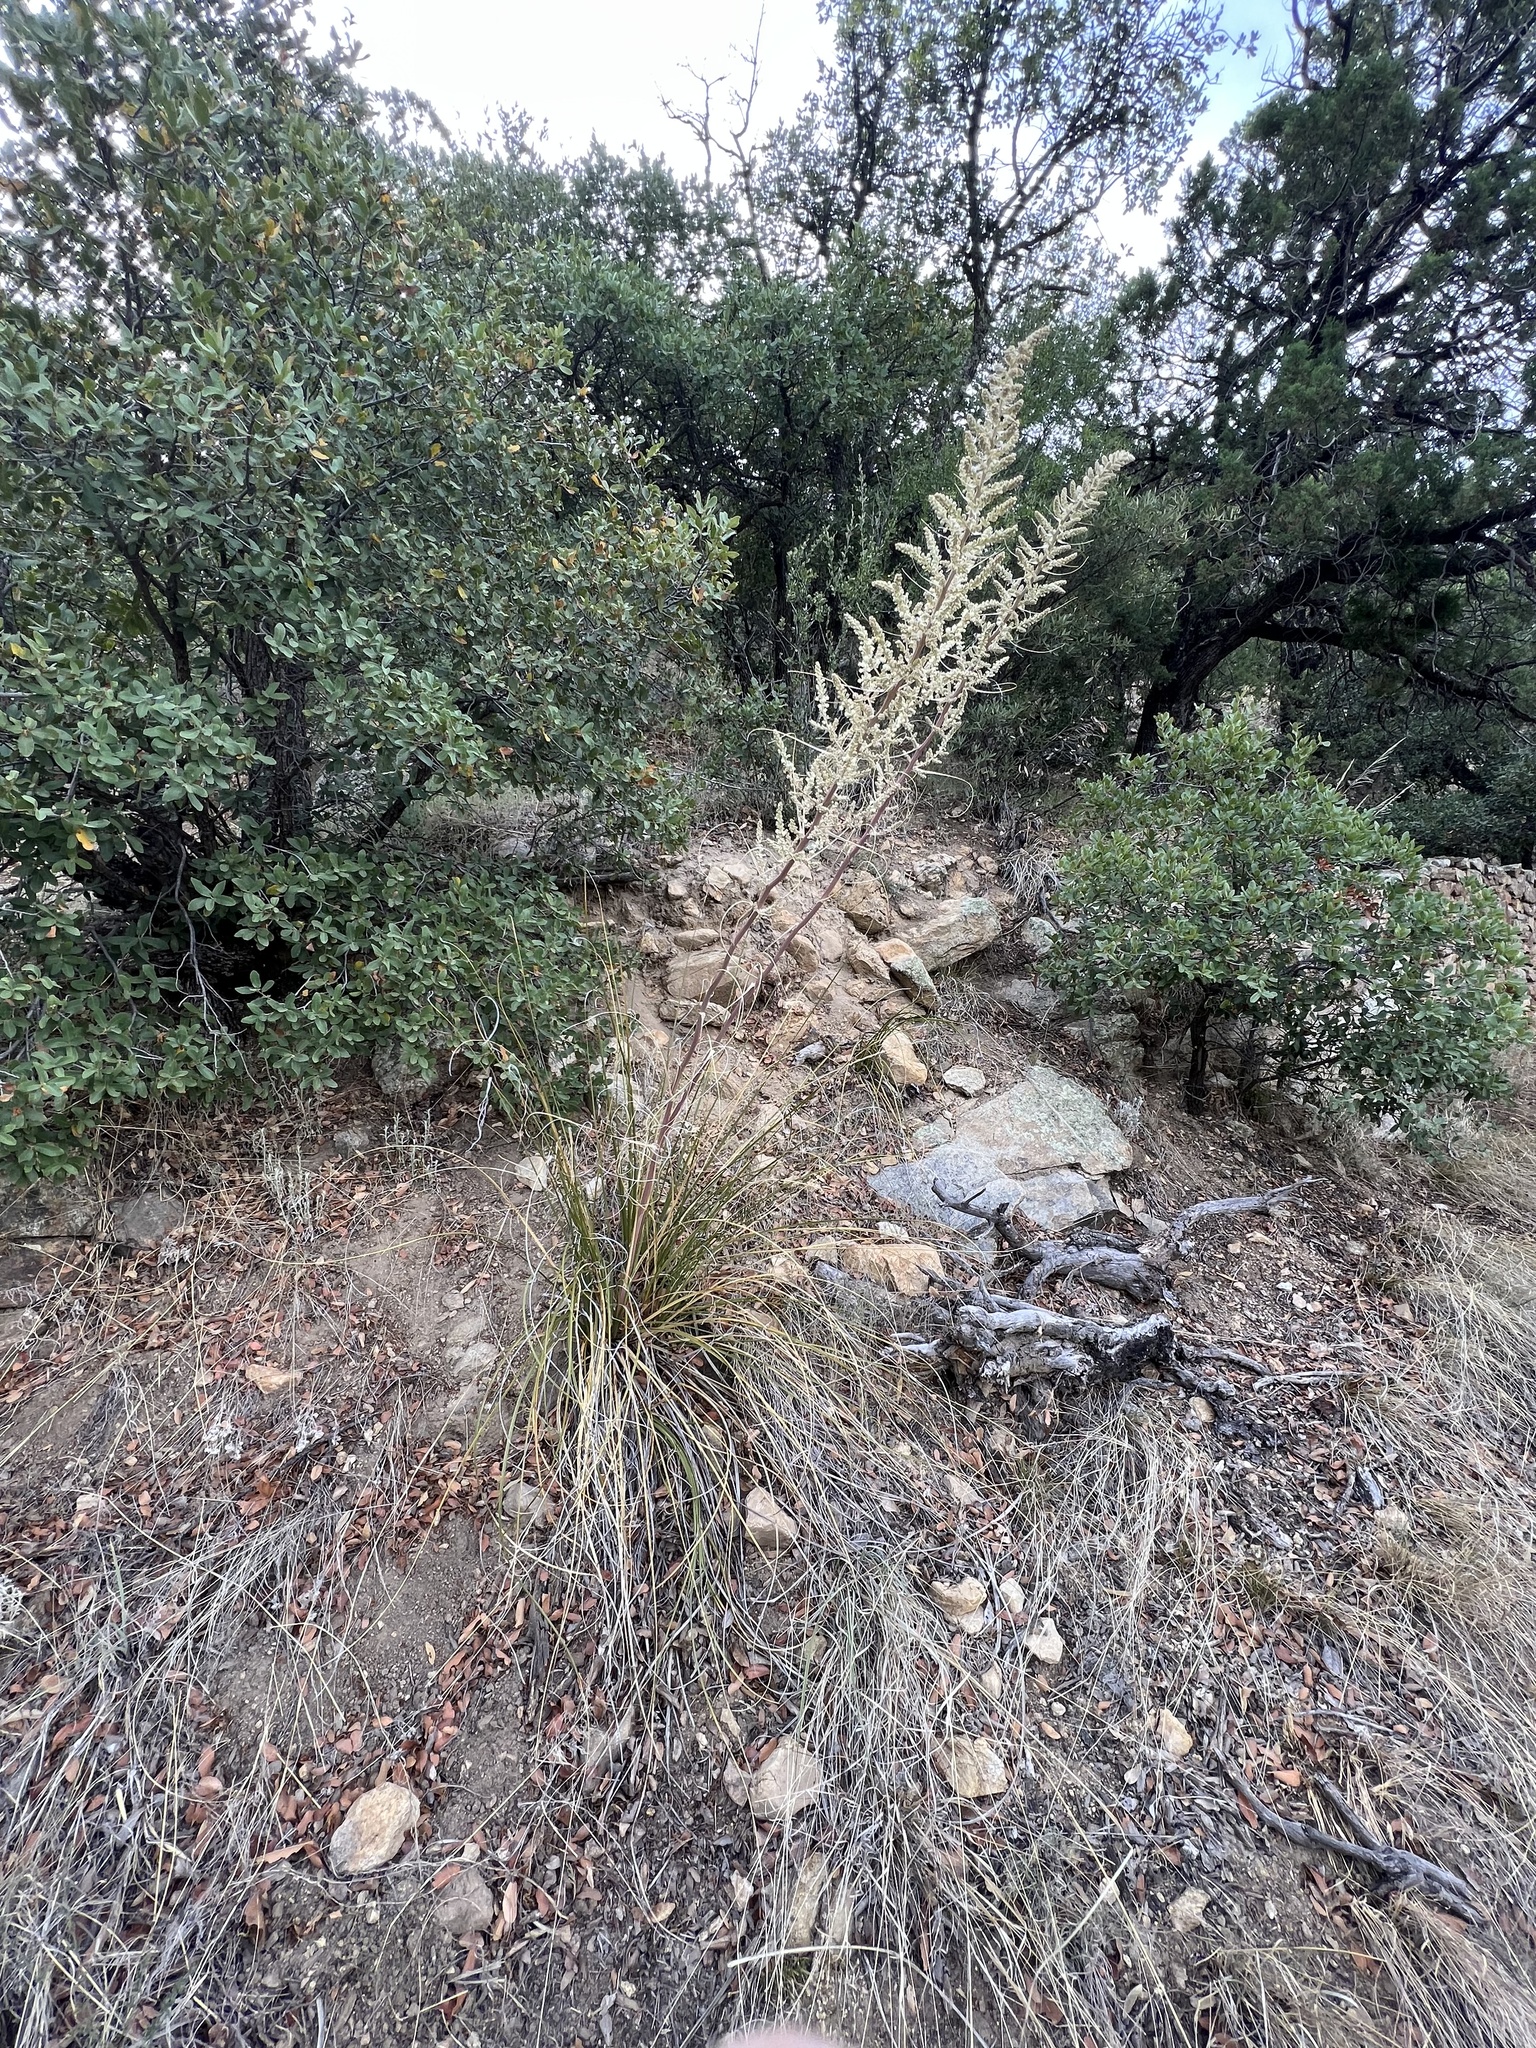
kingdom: Plantae
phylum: Tracheophyta
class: Liliopsida
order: Asparagales
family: Asparagaceae
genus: Nolina
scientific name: Nolina microcarpa
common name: Bear-grass
